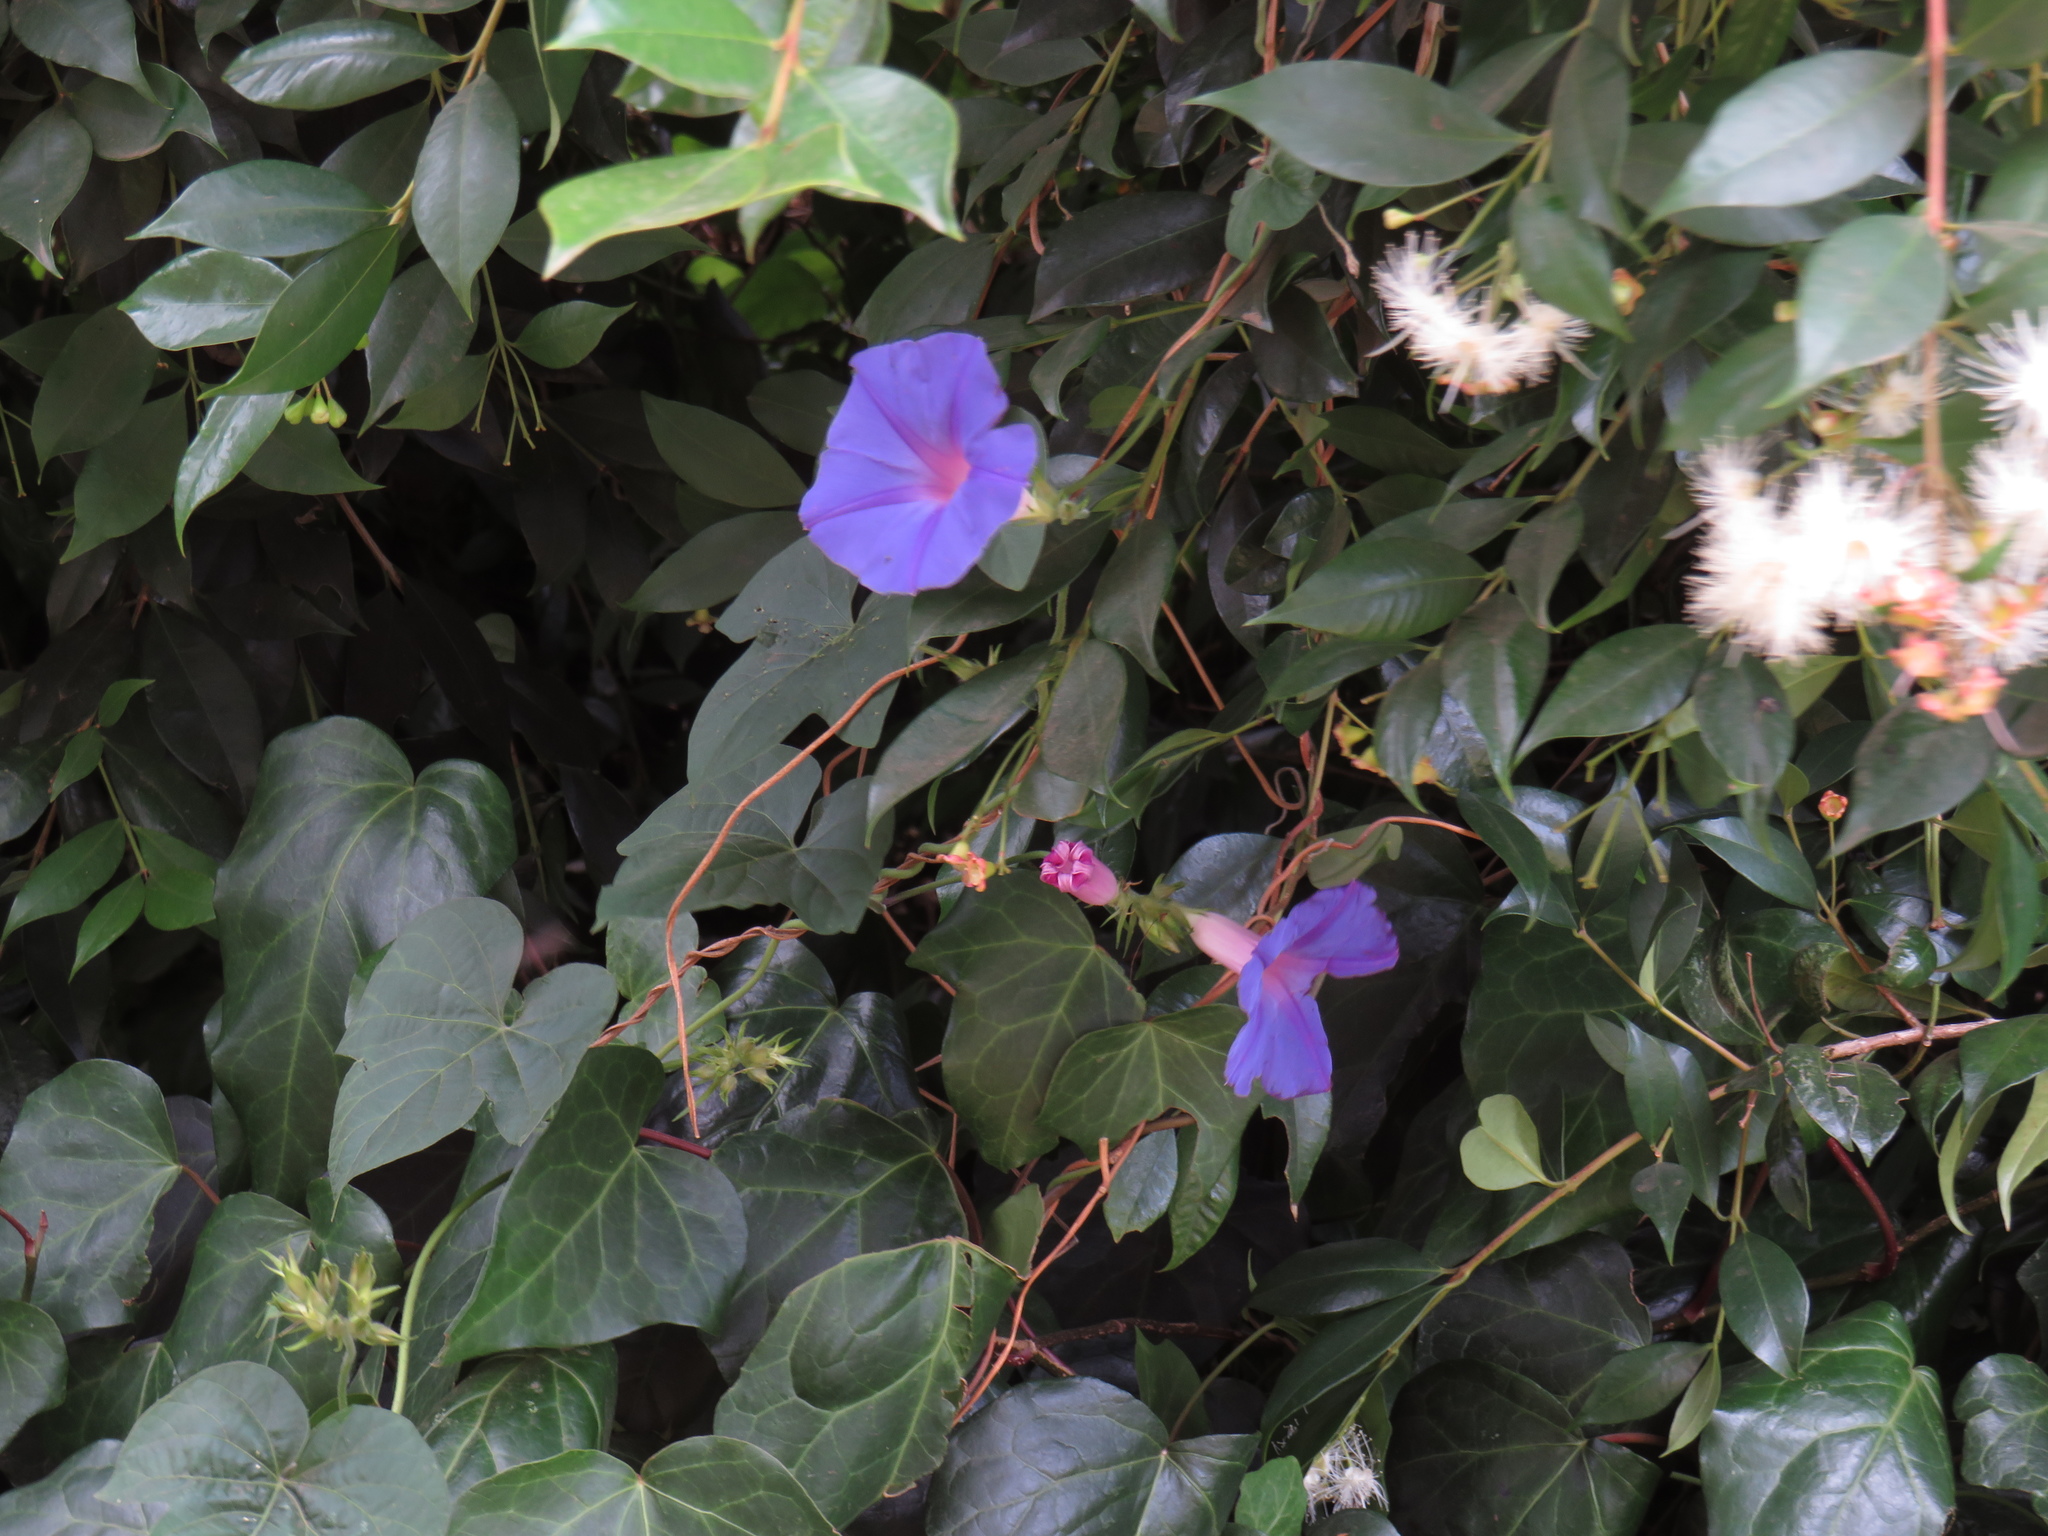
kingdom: Plantae
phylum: Tracheophyta
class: Magnoliopsida
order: Solanales
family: Convolvulaceae
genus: Ipomoea
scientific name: Ipomoea indica
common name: Blue dawnflower
